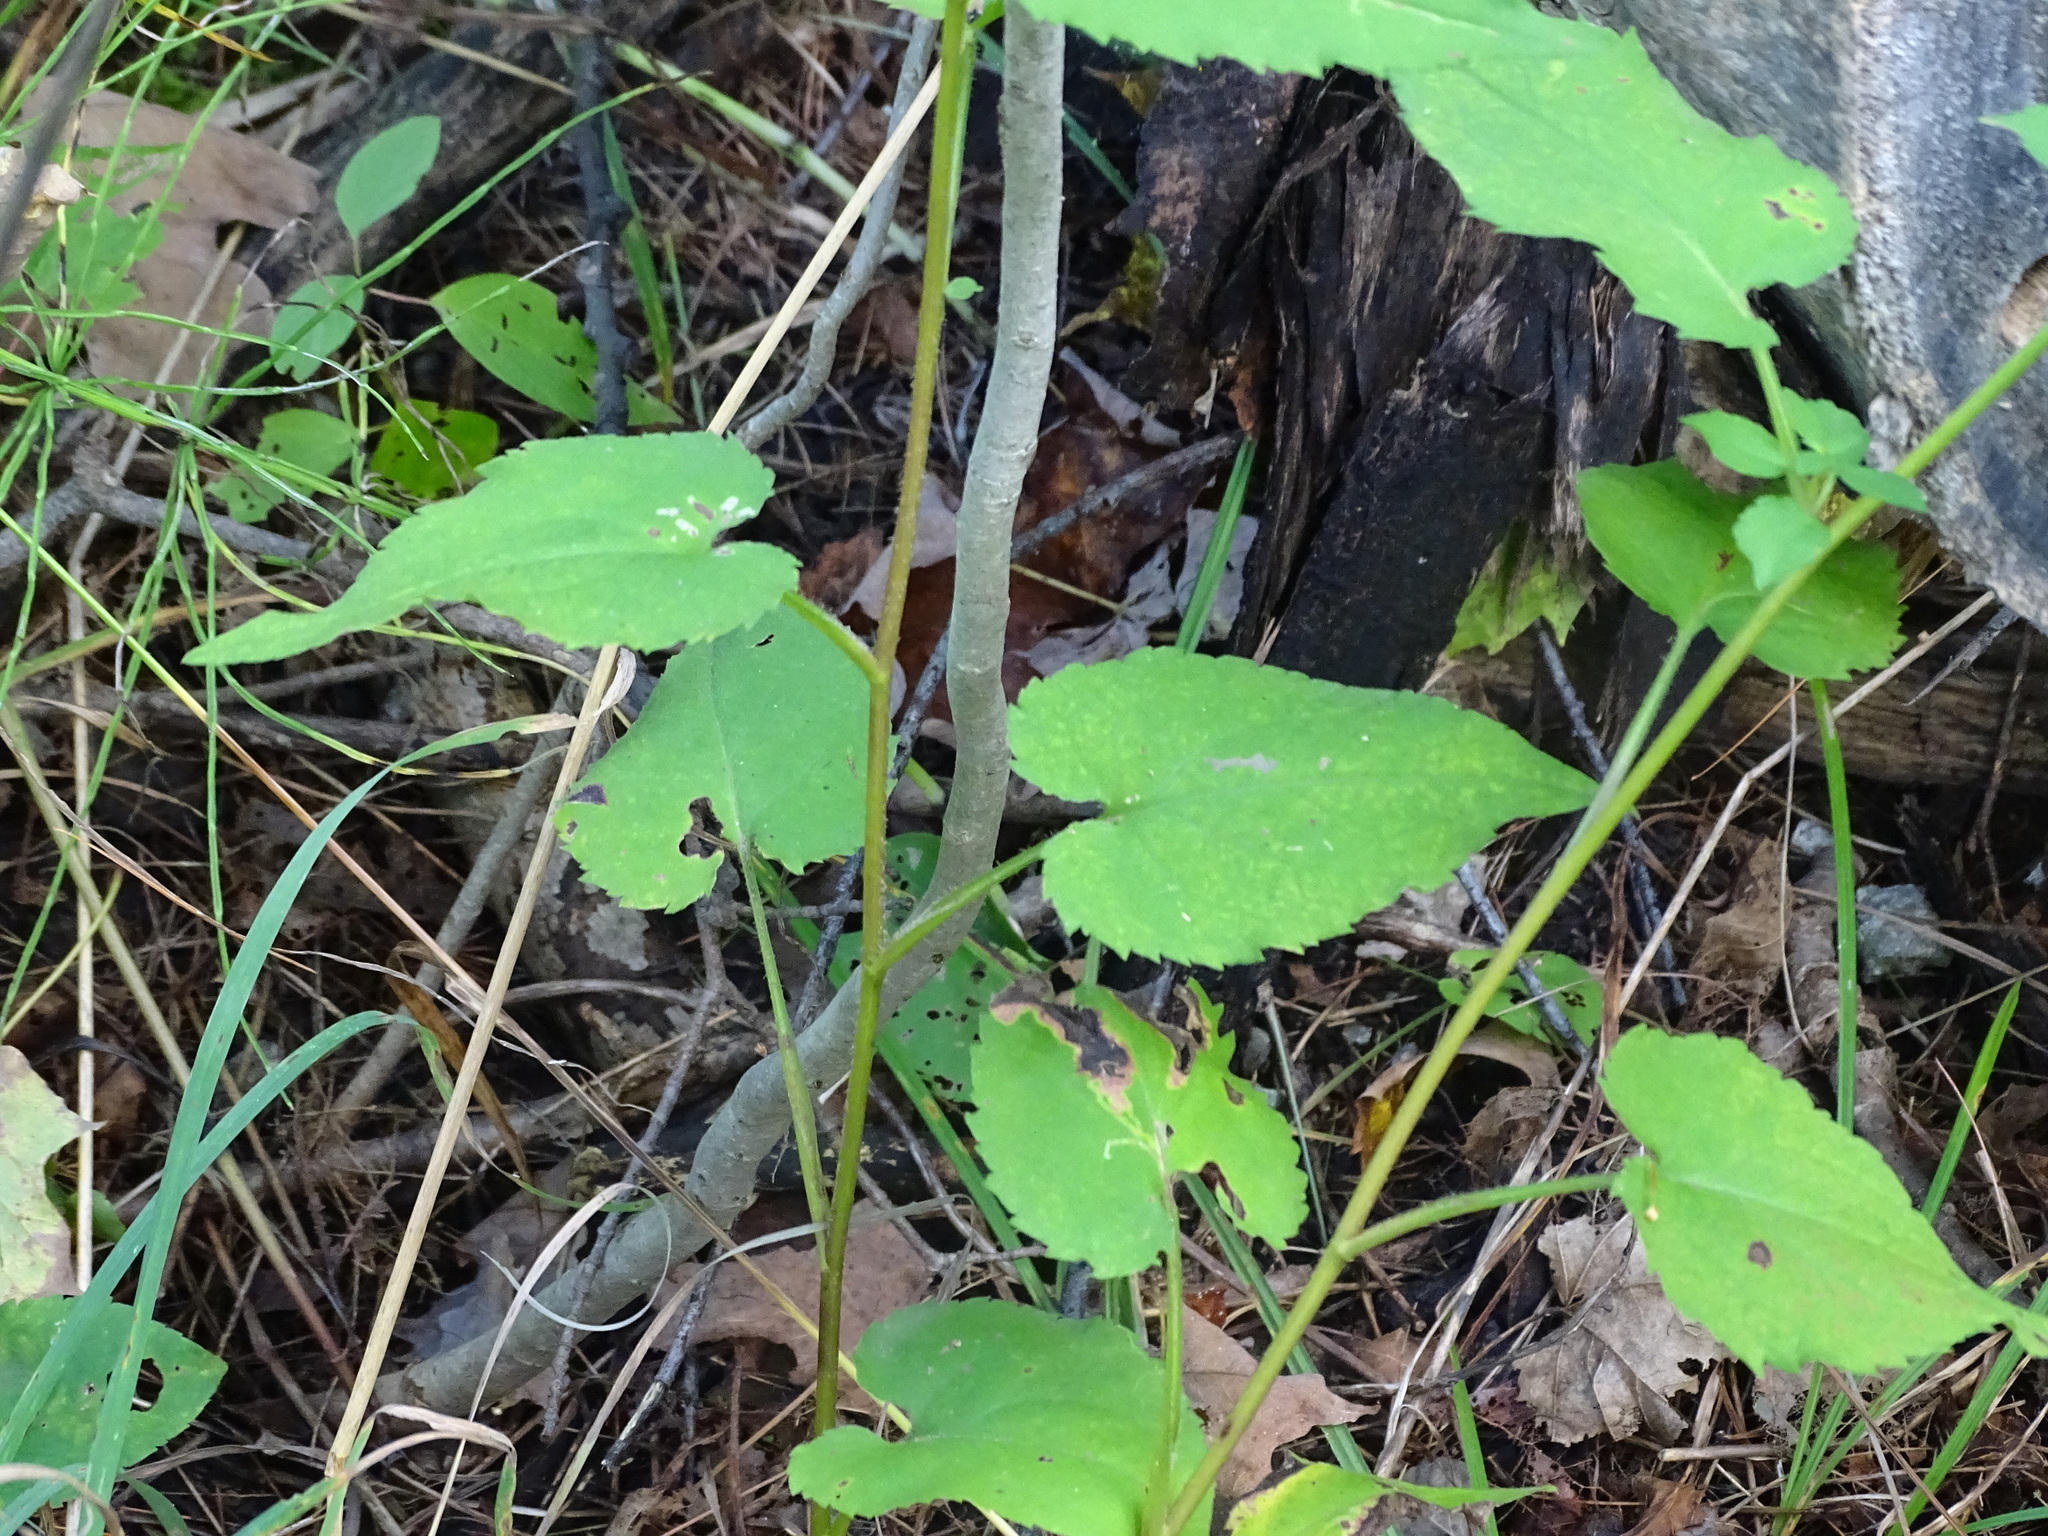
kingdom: Plantae
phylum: Tracheophyta
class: Magnoliopsida
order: Asterales
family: Asteraceae
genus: Symphyotrichum
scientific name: Symphyotrichum cordifolium
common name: Beeweed
